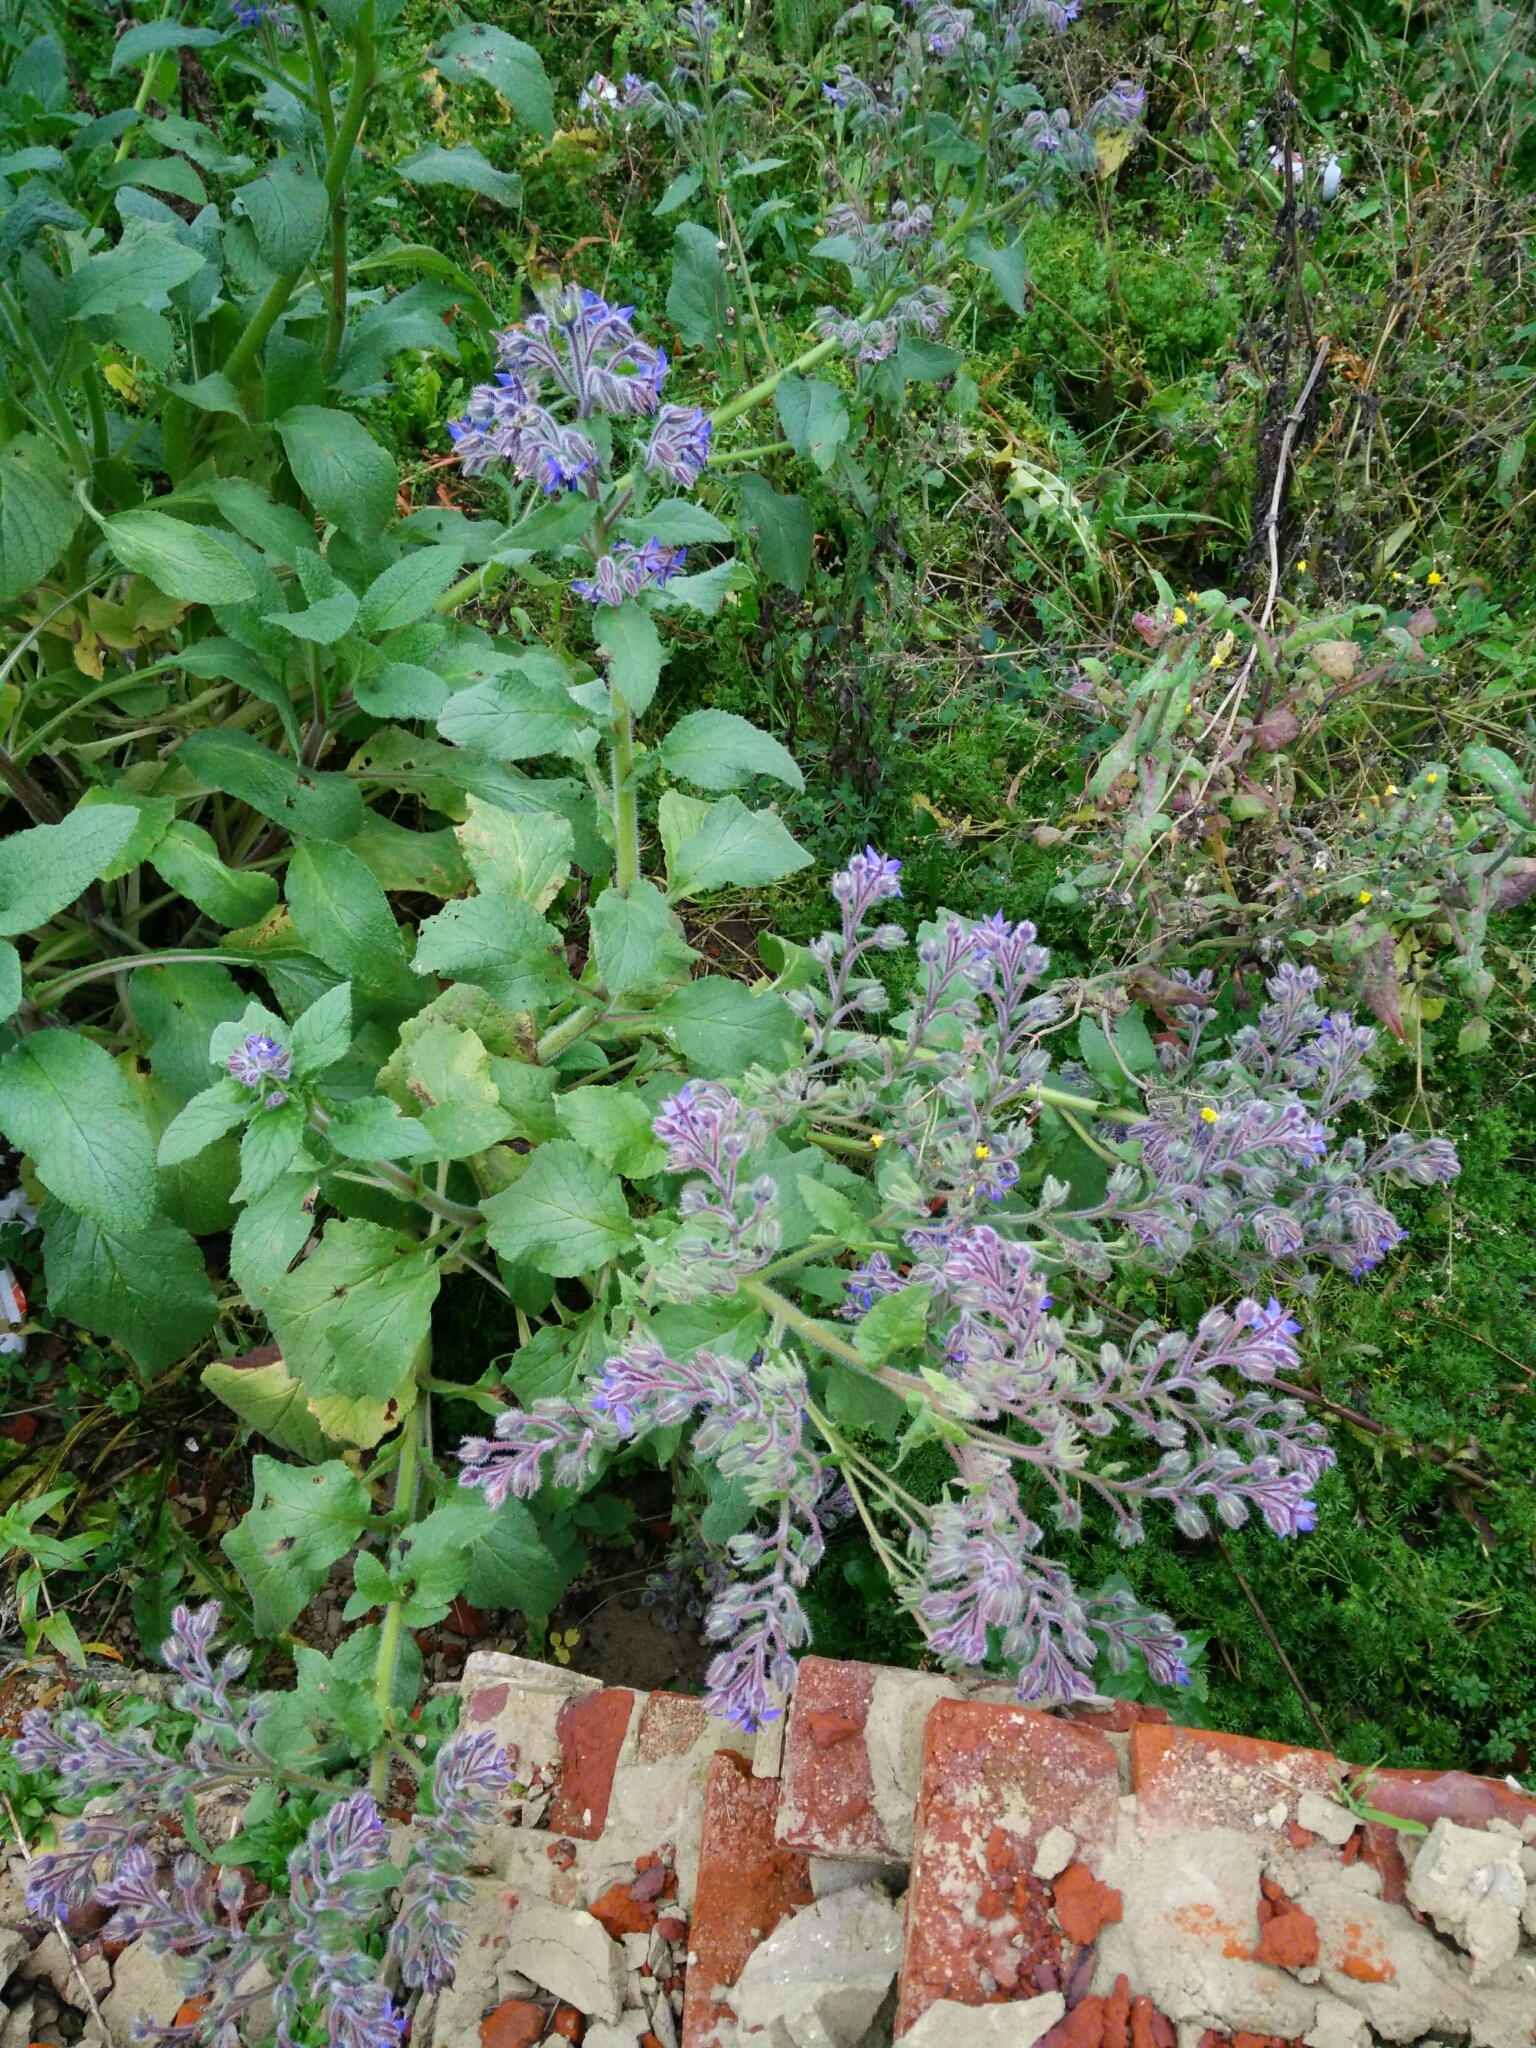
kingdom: Plantae
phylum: Tracheophyta
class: Magnoliopsida
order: Boraginales
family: Boraginaceae
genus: Borago
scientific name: Borago officinalis
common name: Borage
